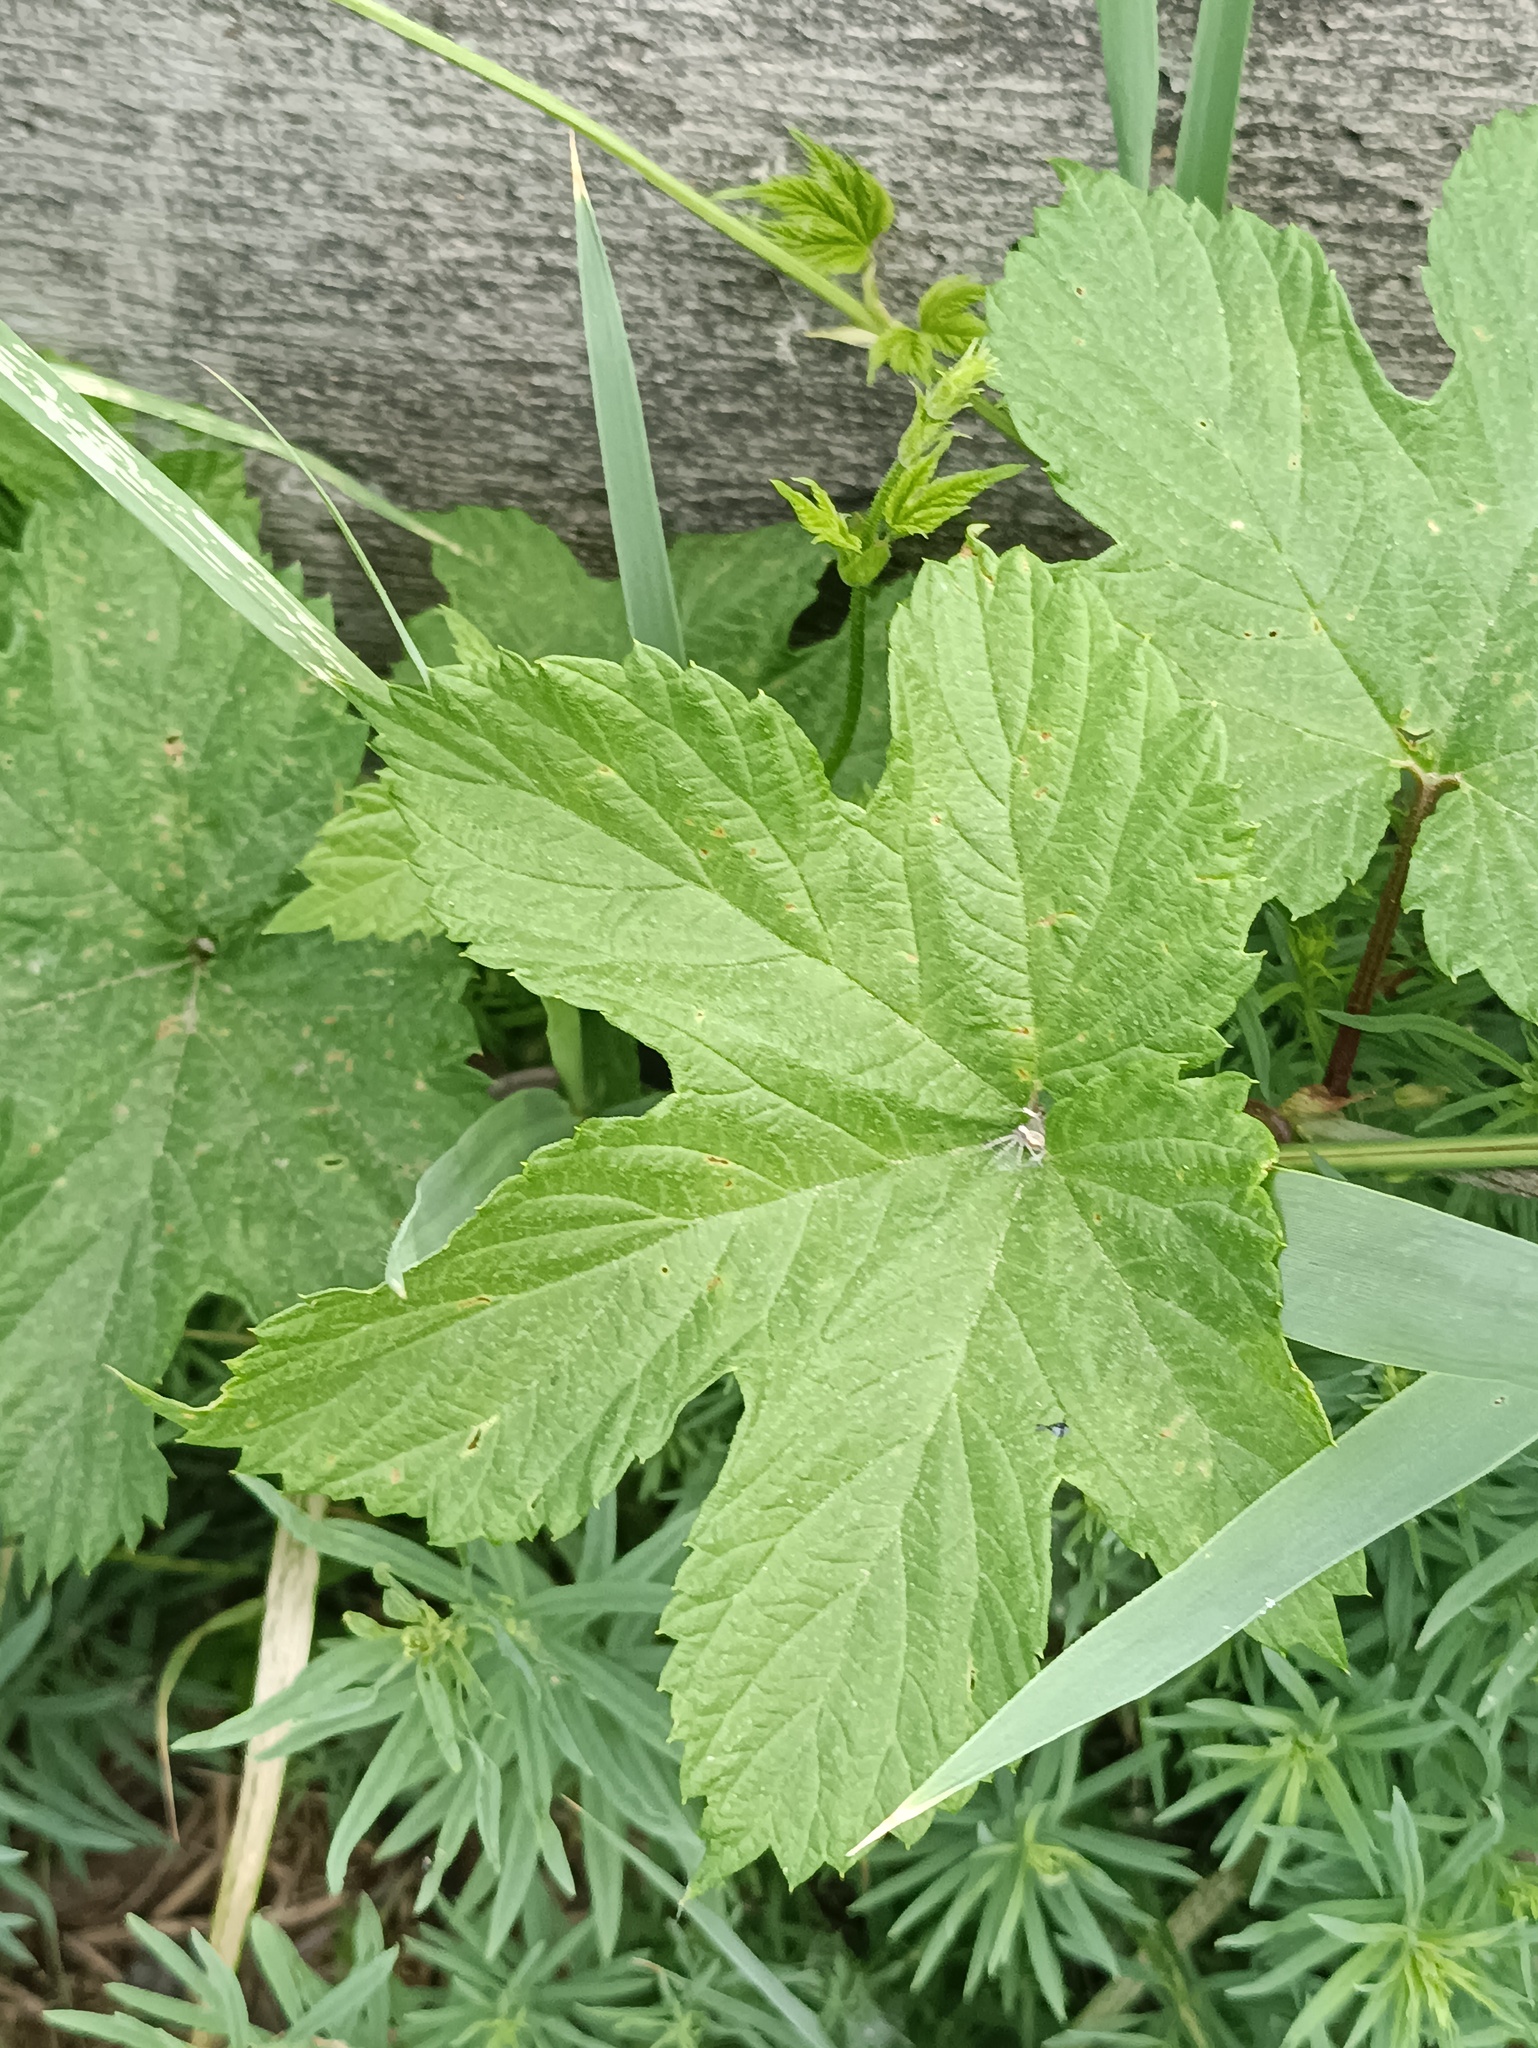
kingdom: Plantae
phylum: Tracheophyta
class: Magnoliopsida
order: Rosales
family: Cannabaceae
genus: Humulus
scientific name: Humulus lupulus
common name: Hop
